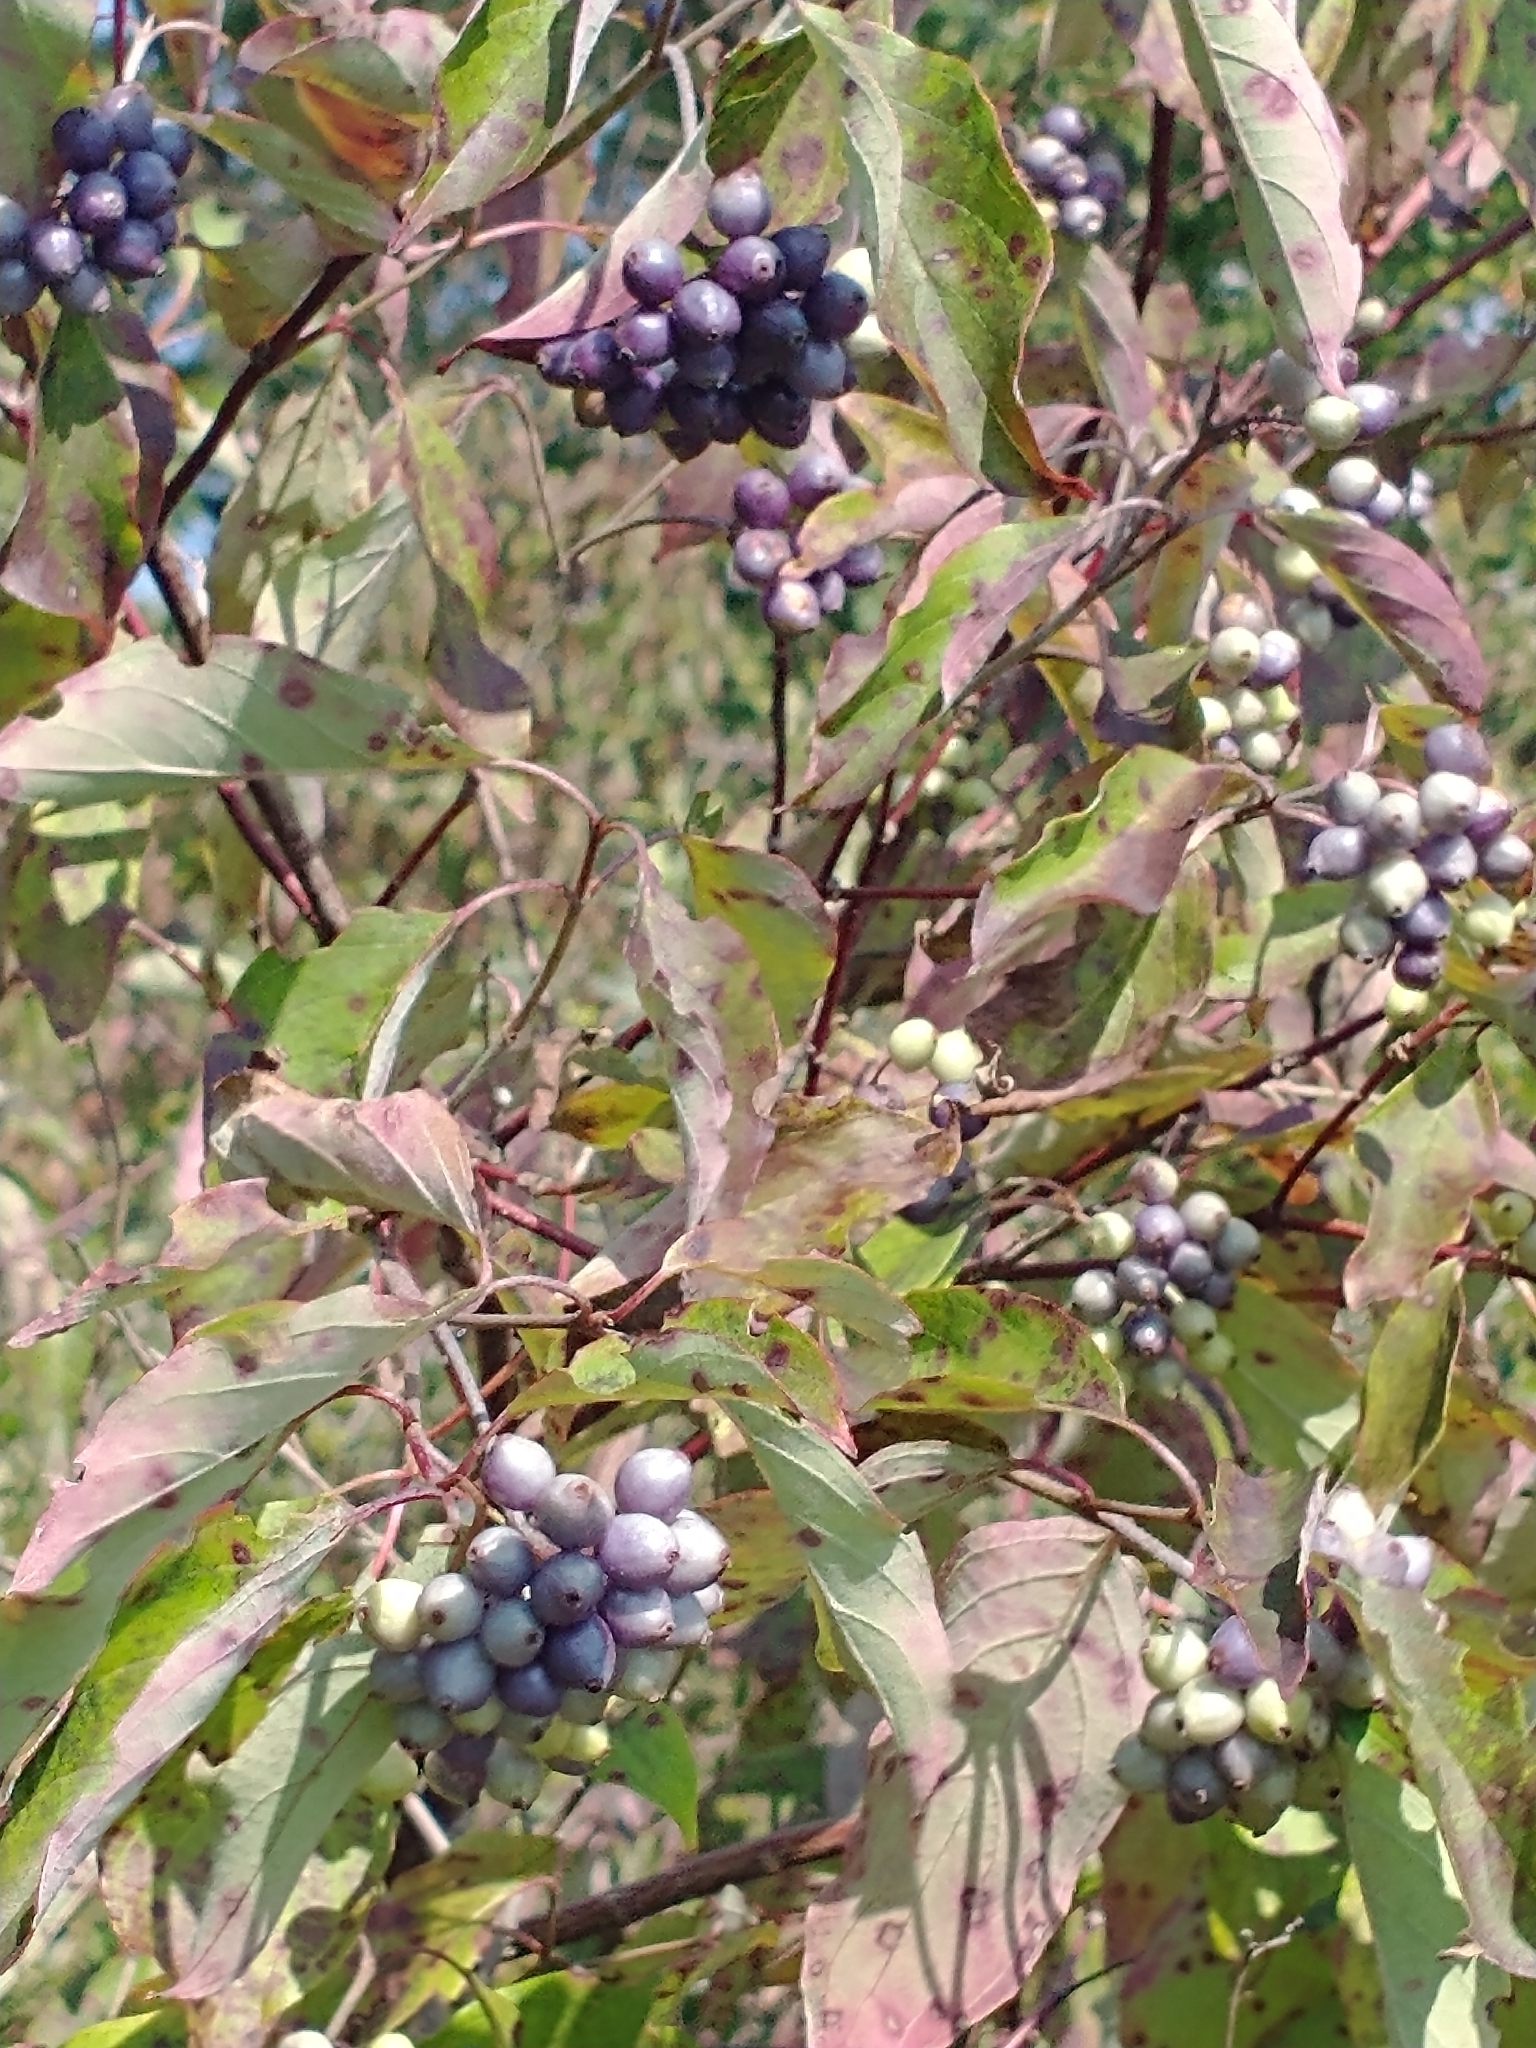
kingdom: Plantae
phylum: Tracheophyta
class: Magnoliopsida
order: Cornales
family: Cornaceae
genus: Cornus
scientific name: Cornus amomum
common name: Silky dogwood
